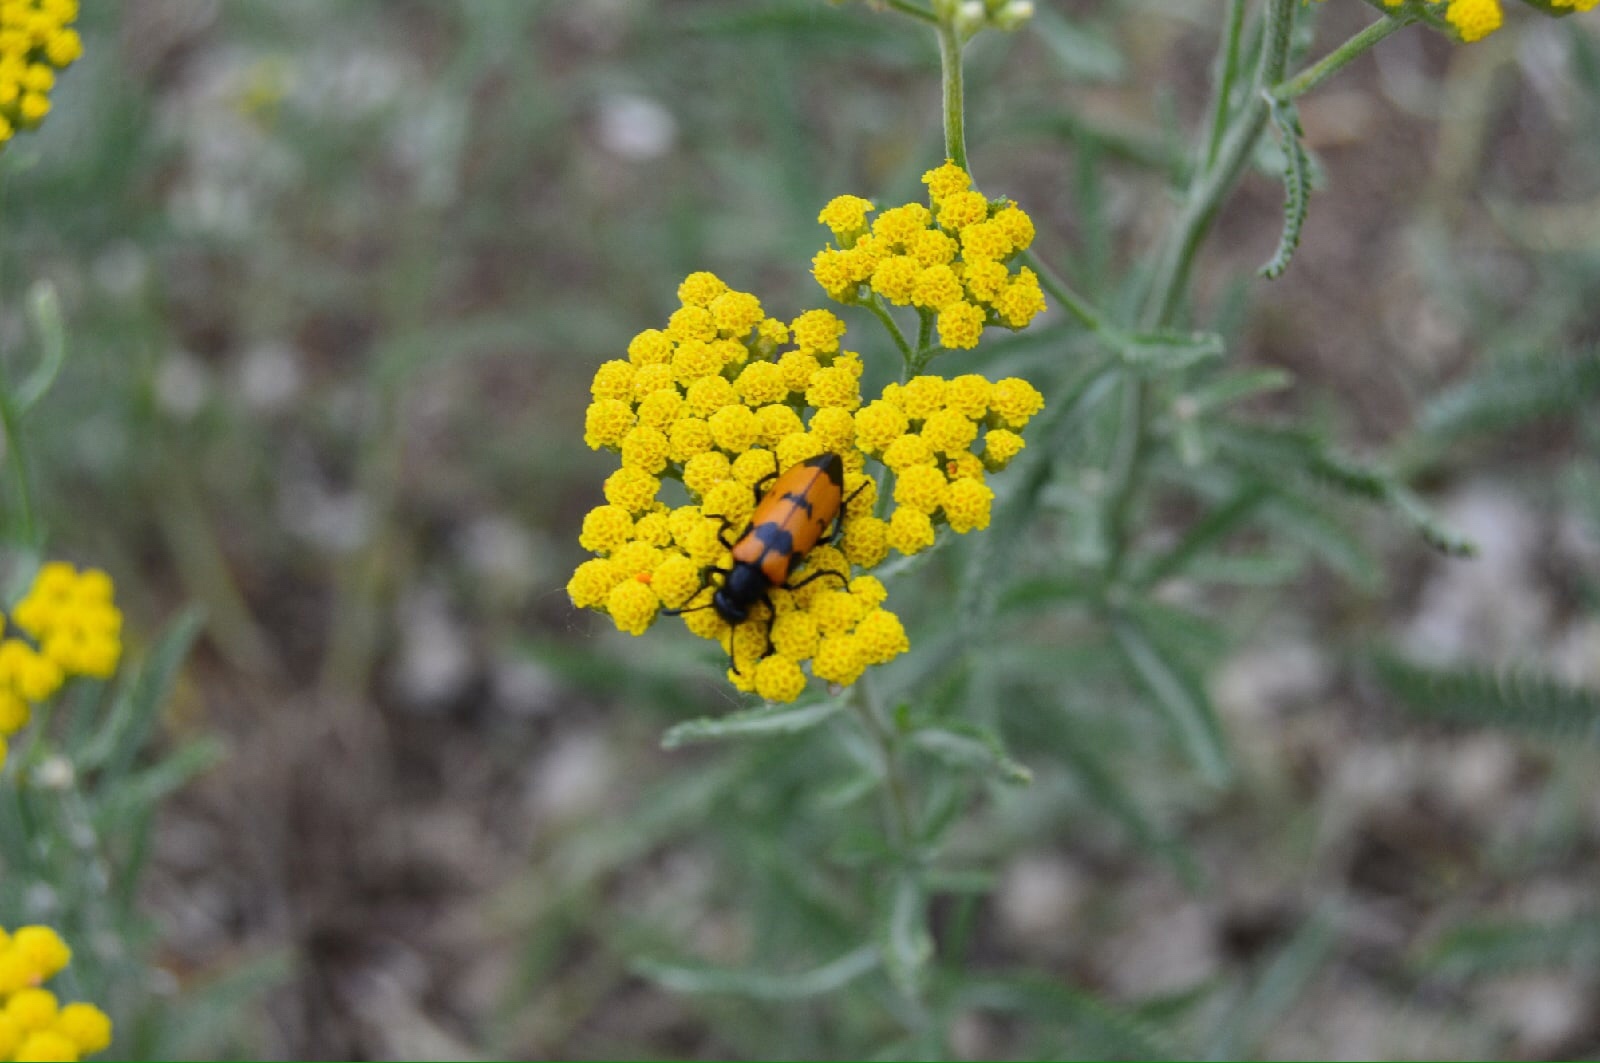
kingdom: Animalia
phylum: Arthropoda
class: Insecta
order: Coleoptera
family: Meloidae
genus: Mylabris
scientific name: Mylabris variabilis
